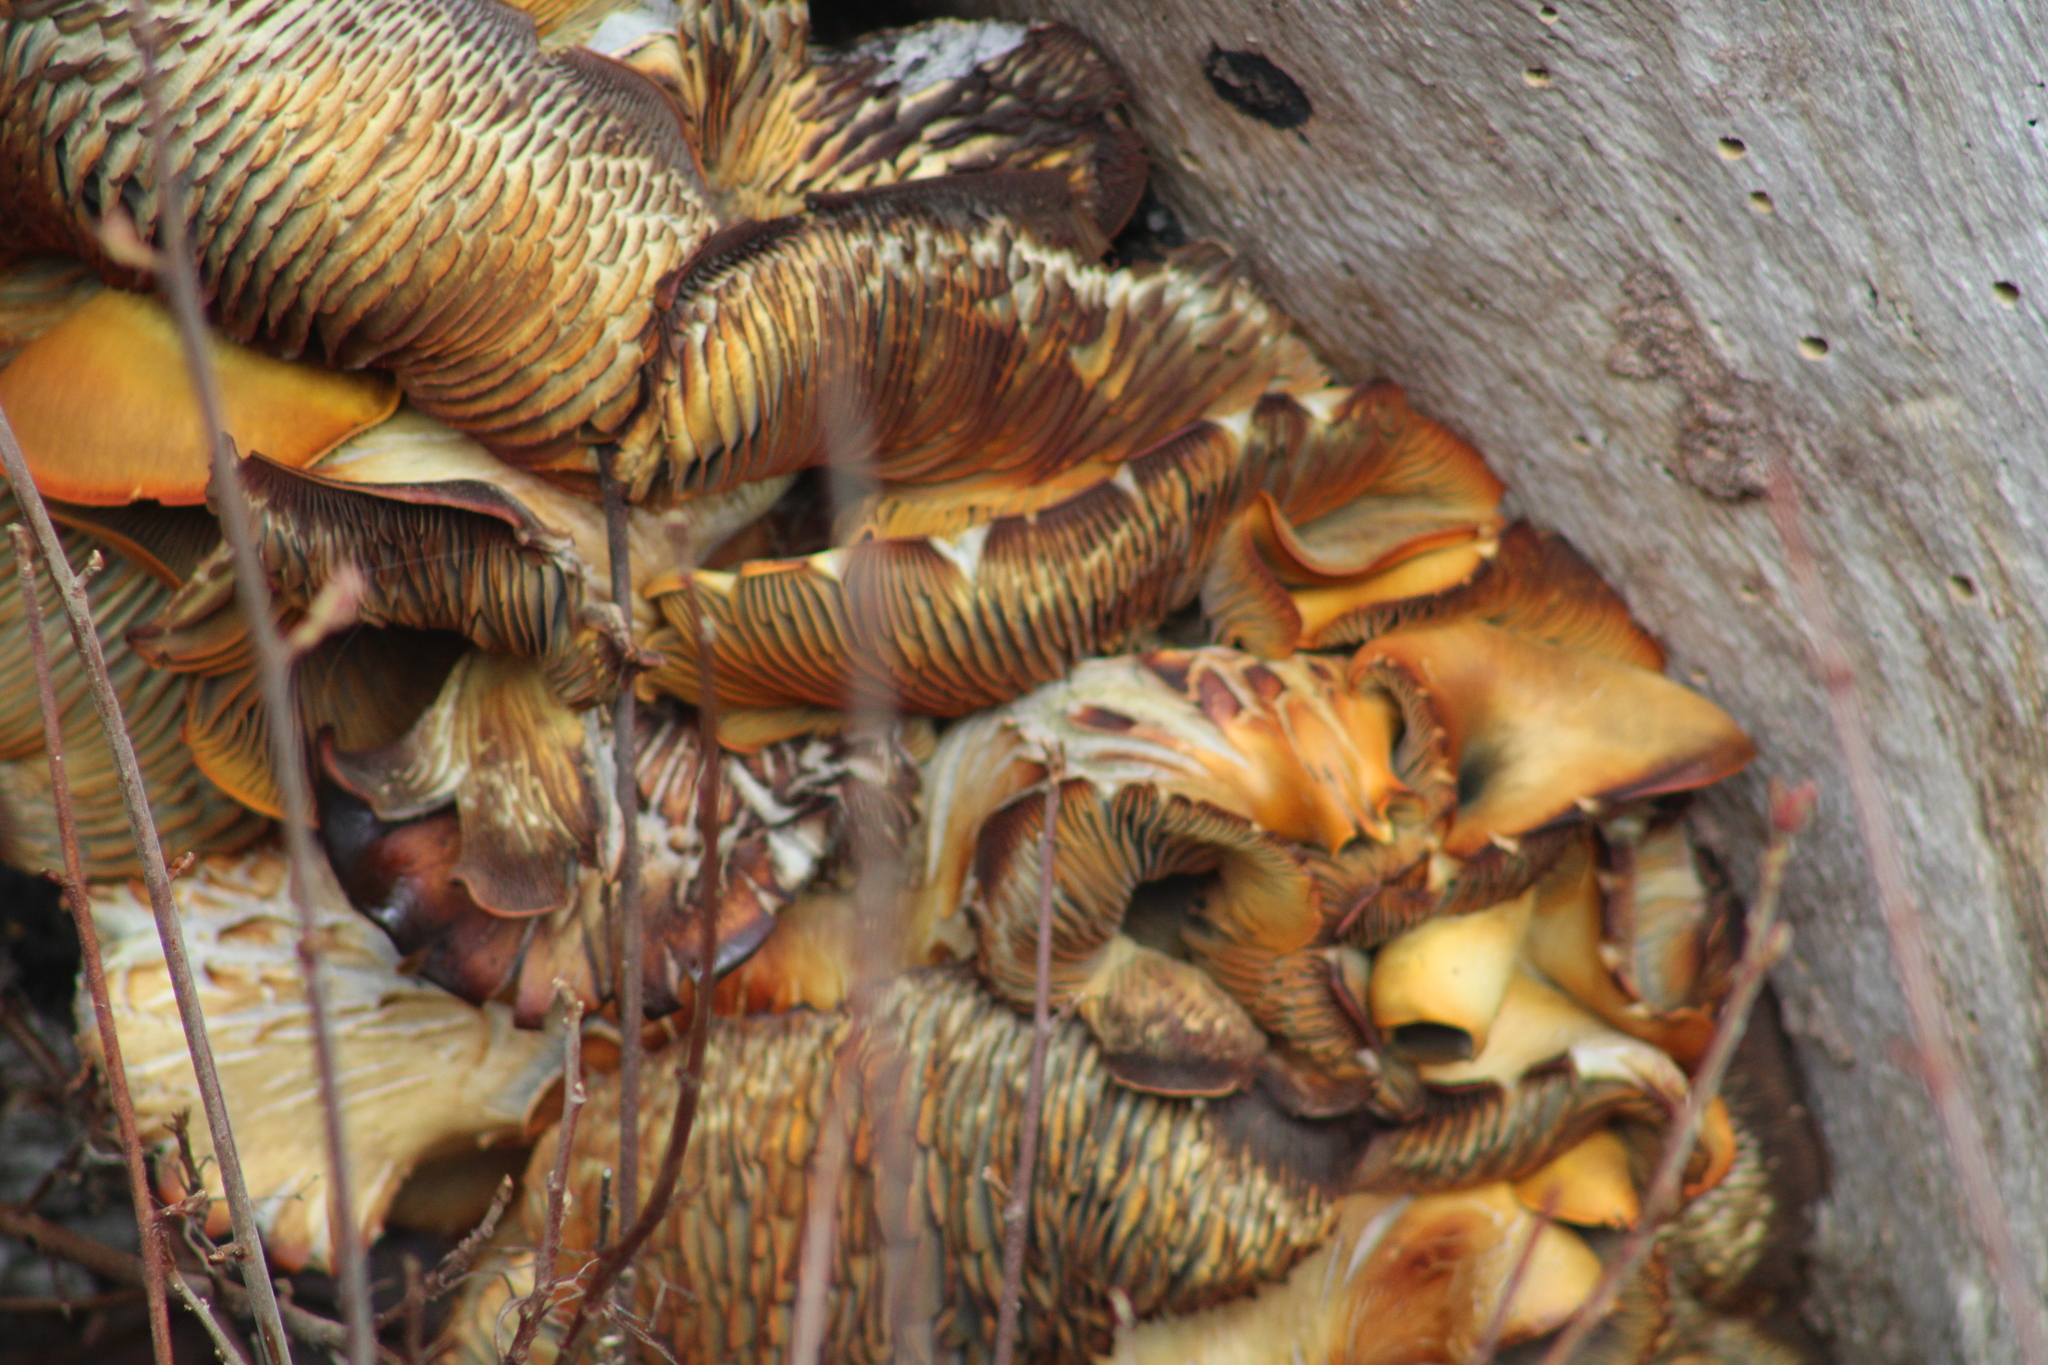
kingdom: Fungi
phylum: Basidiomycota
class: Agaricomycetes
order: Agaricales
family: Omphalotaceae
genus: Omphalotus
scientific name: Omphalotus olivascens
